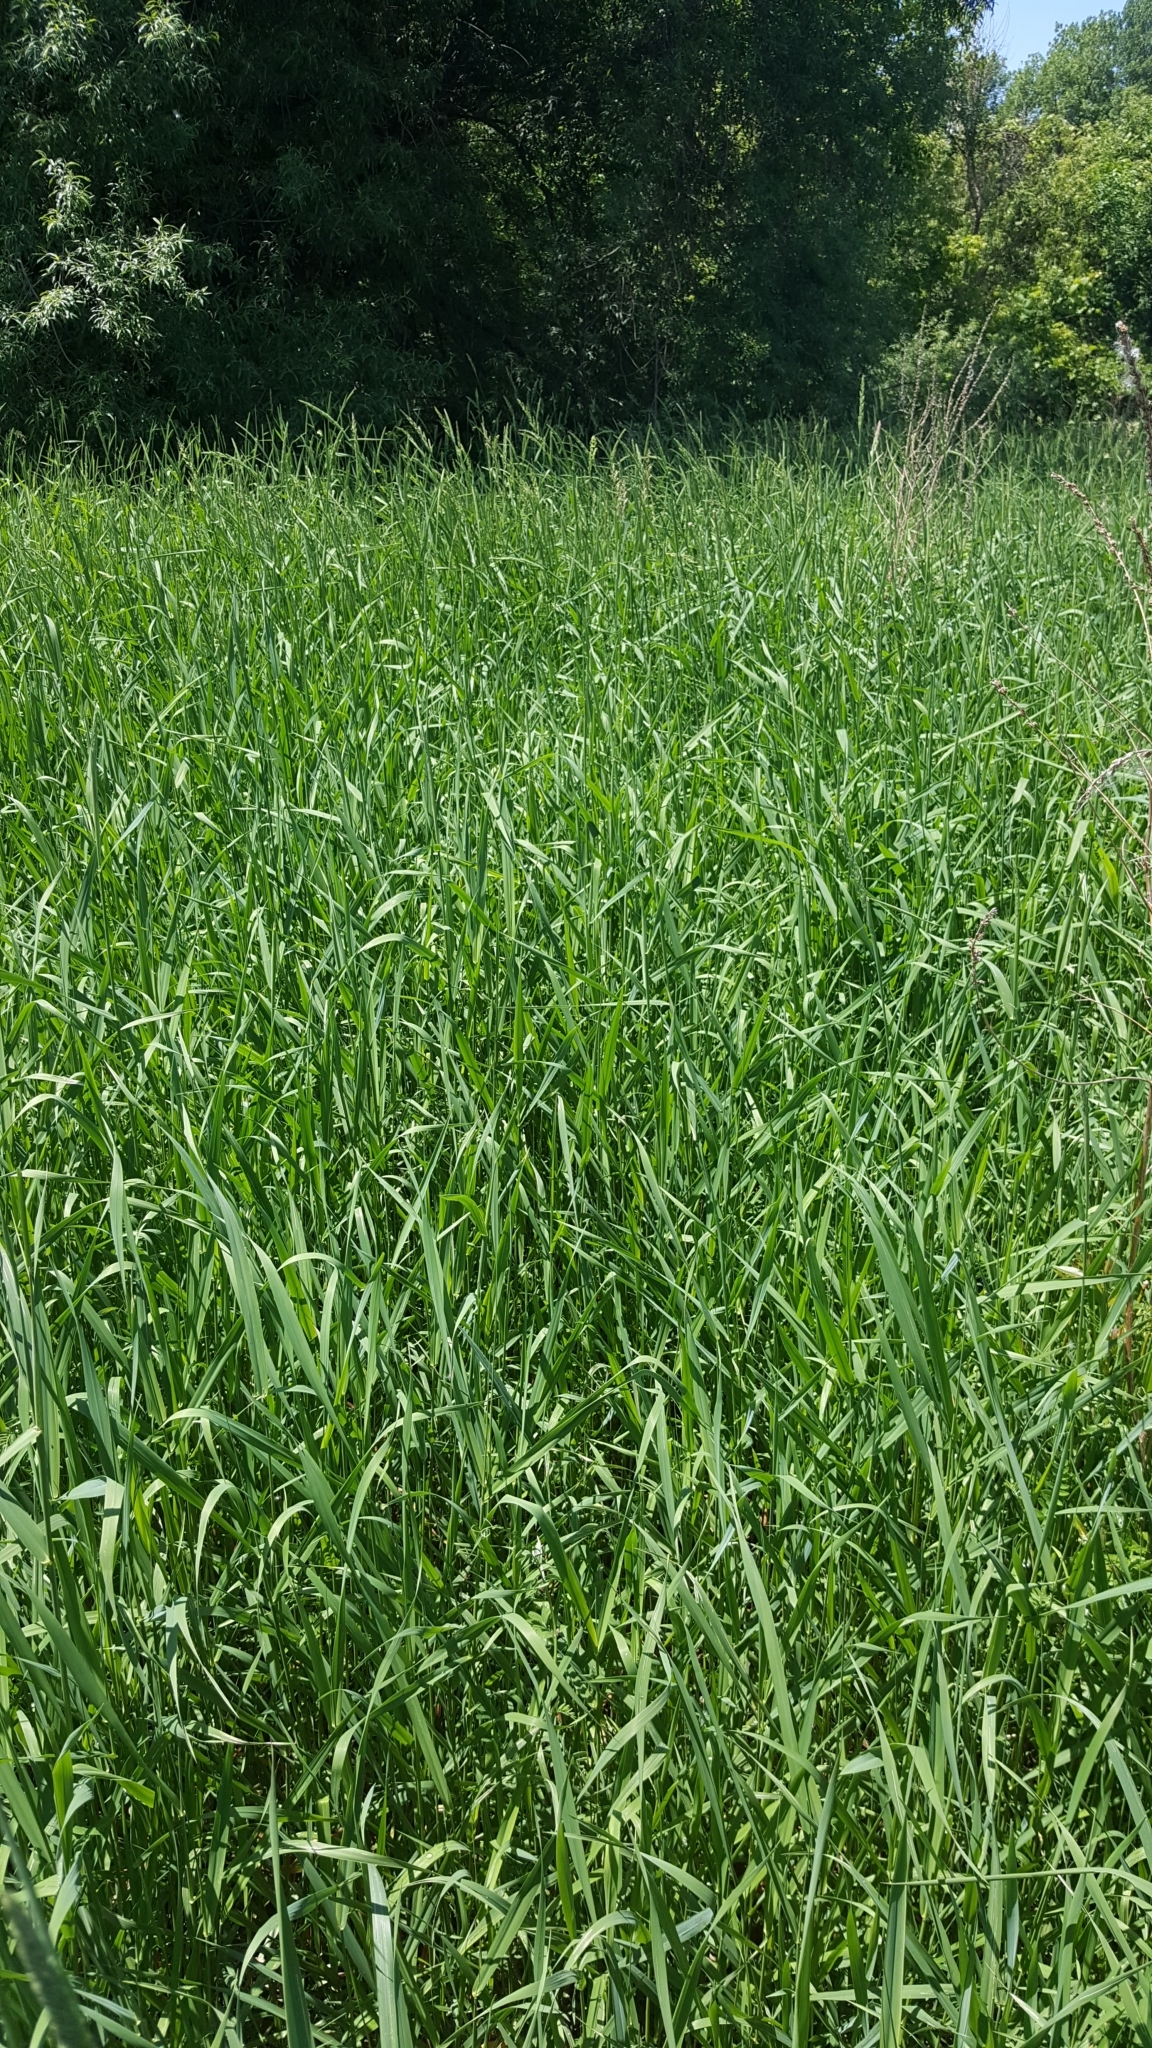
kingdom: Plantae
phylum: Tracheophyta
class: Liliopsida
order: Poales
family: Poaceae
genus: Phalaris
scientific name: Phalaris arundinacea
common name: Reed canary-grass
